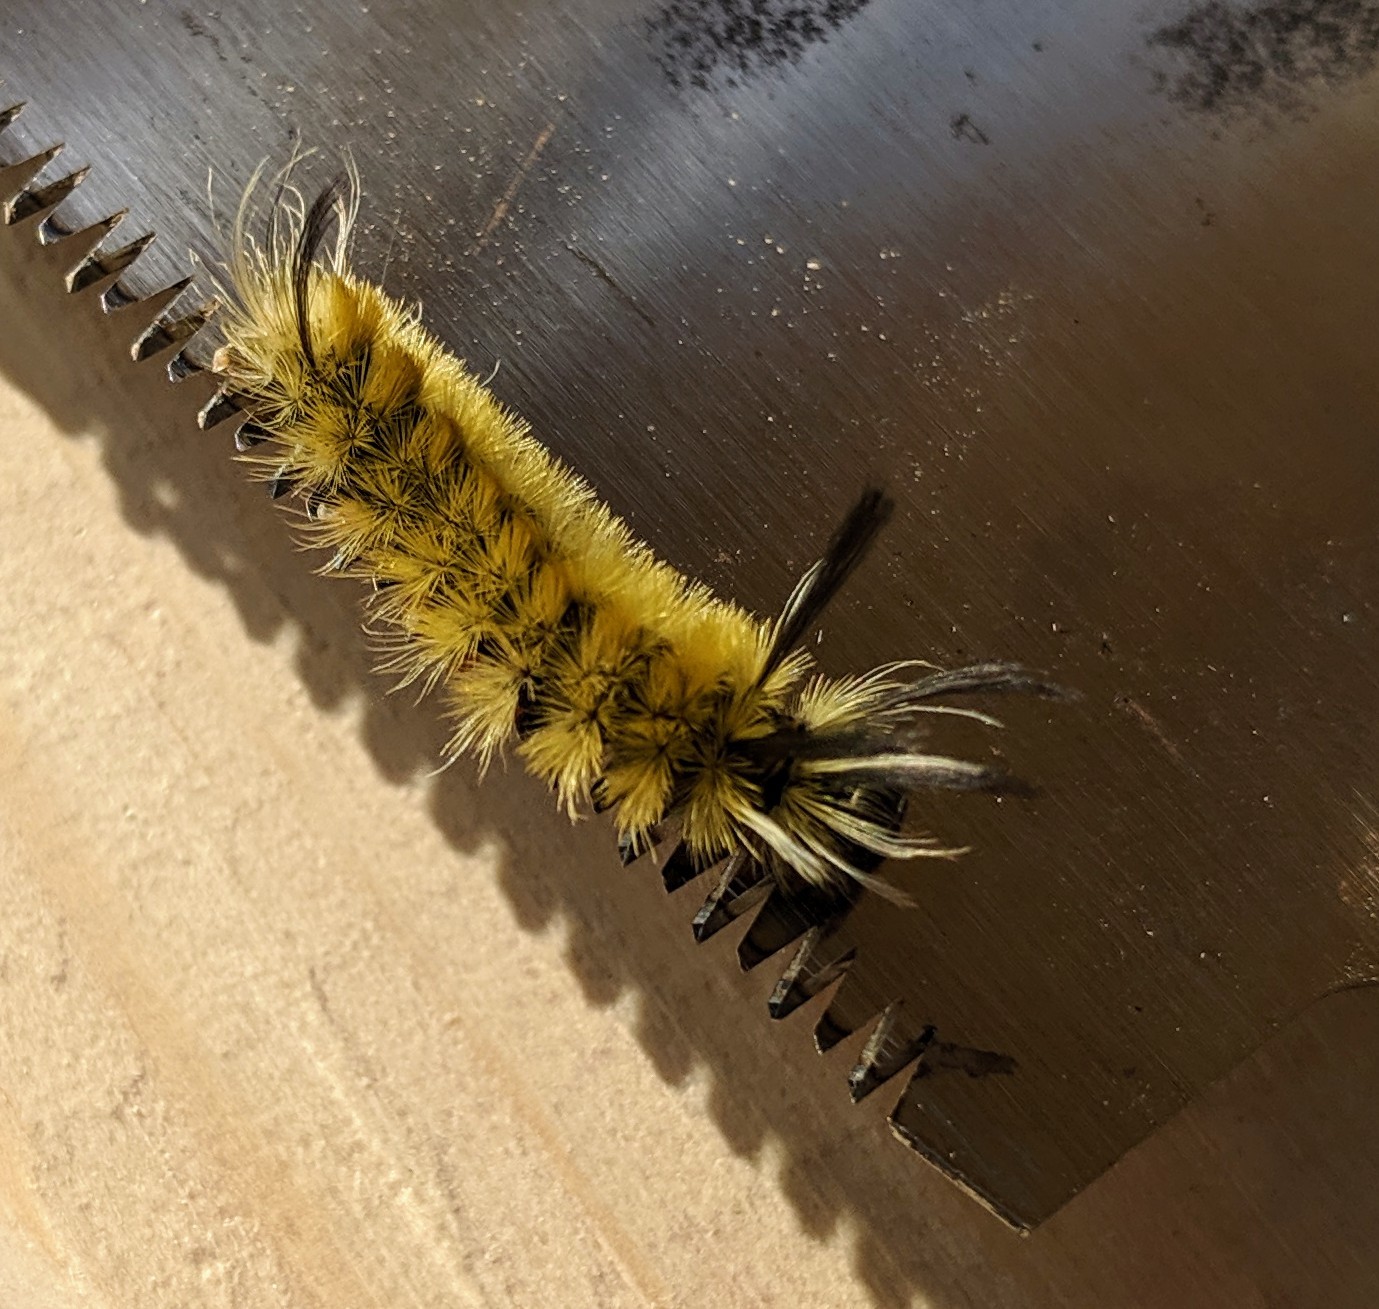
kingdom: Animalia
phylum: Arthropoda
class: Insecta
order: Lepidoptera
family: Erebidae
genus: Halysidota
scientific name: Halysidota tessellaris
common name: Banded tussock moth
